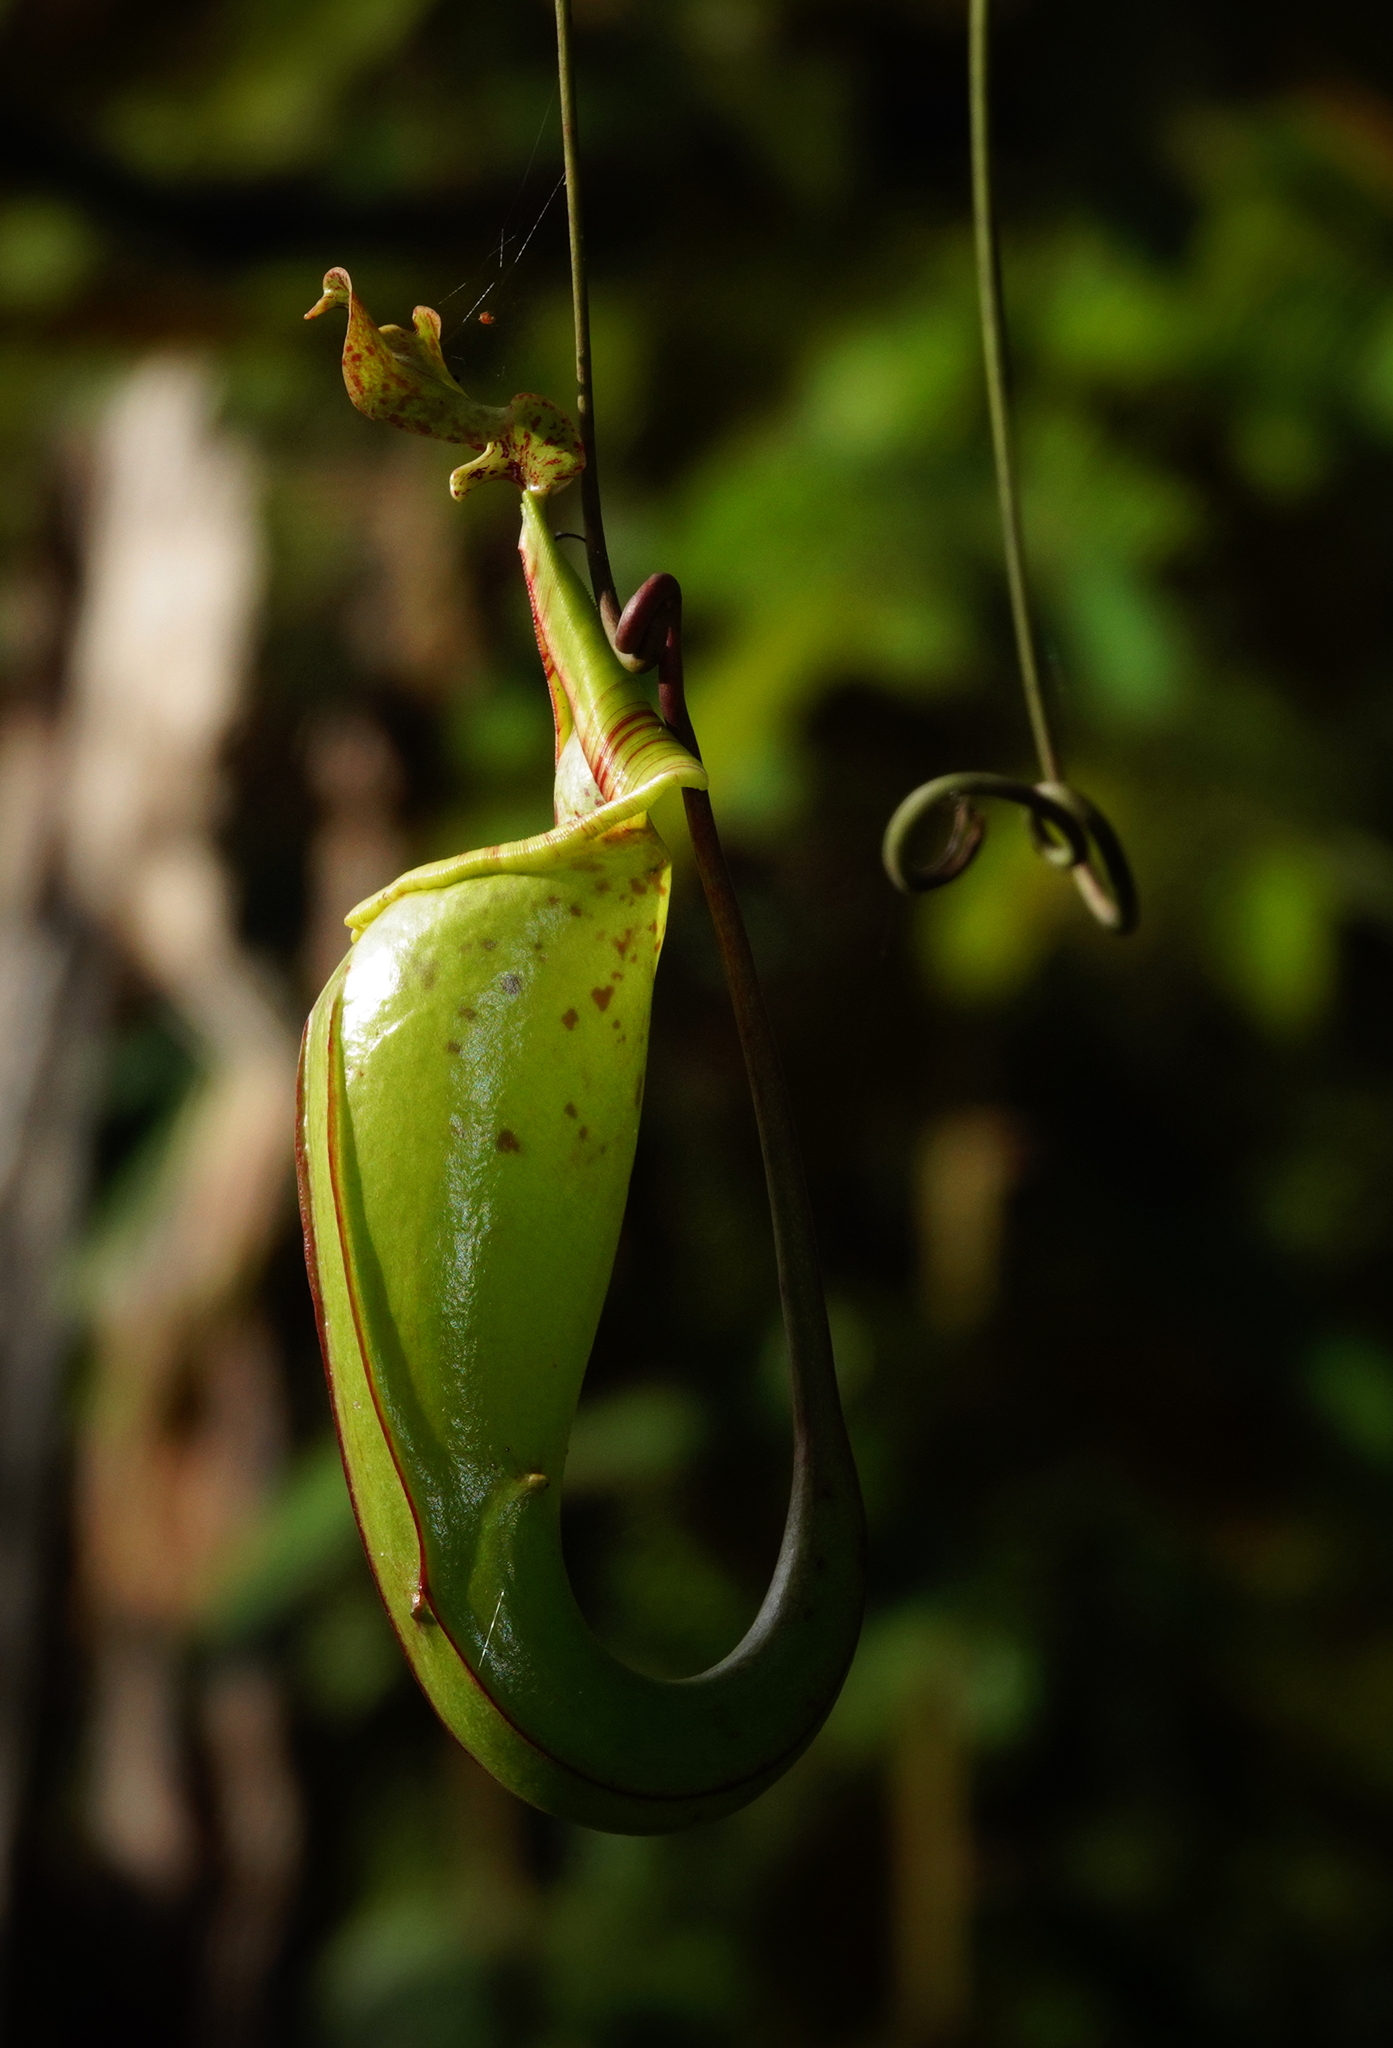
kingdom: Plantae
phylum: Tracheophyta
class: Magnoliopsida
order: Caryophyllales
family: Nepenthaceae
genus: Nepenthes
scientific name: Nepenthes maxima
